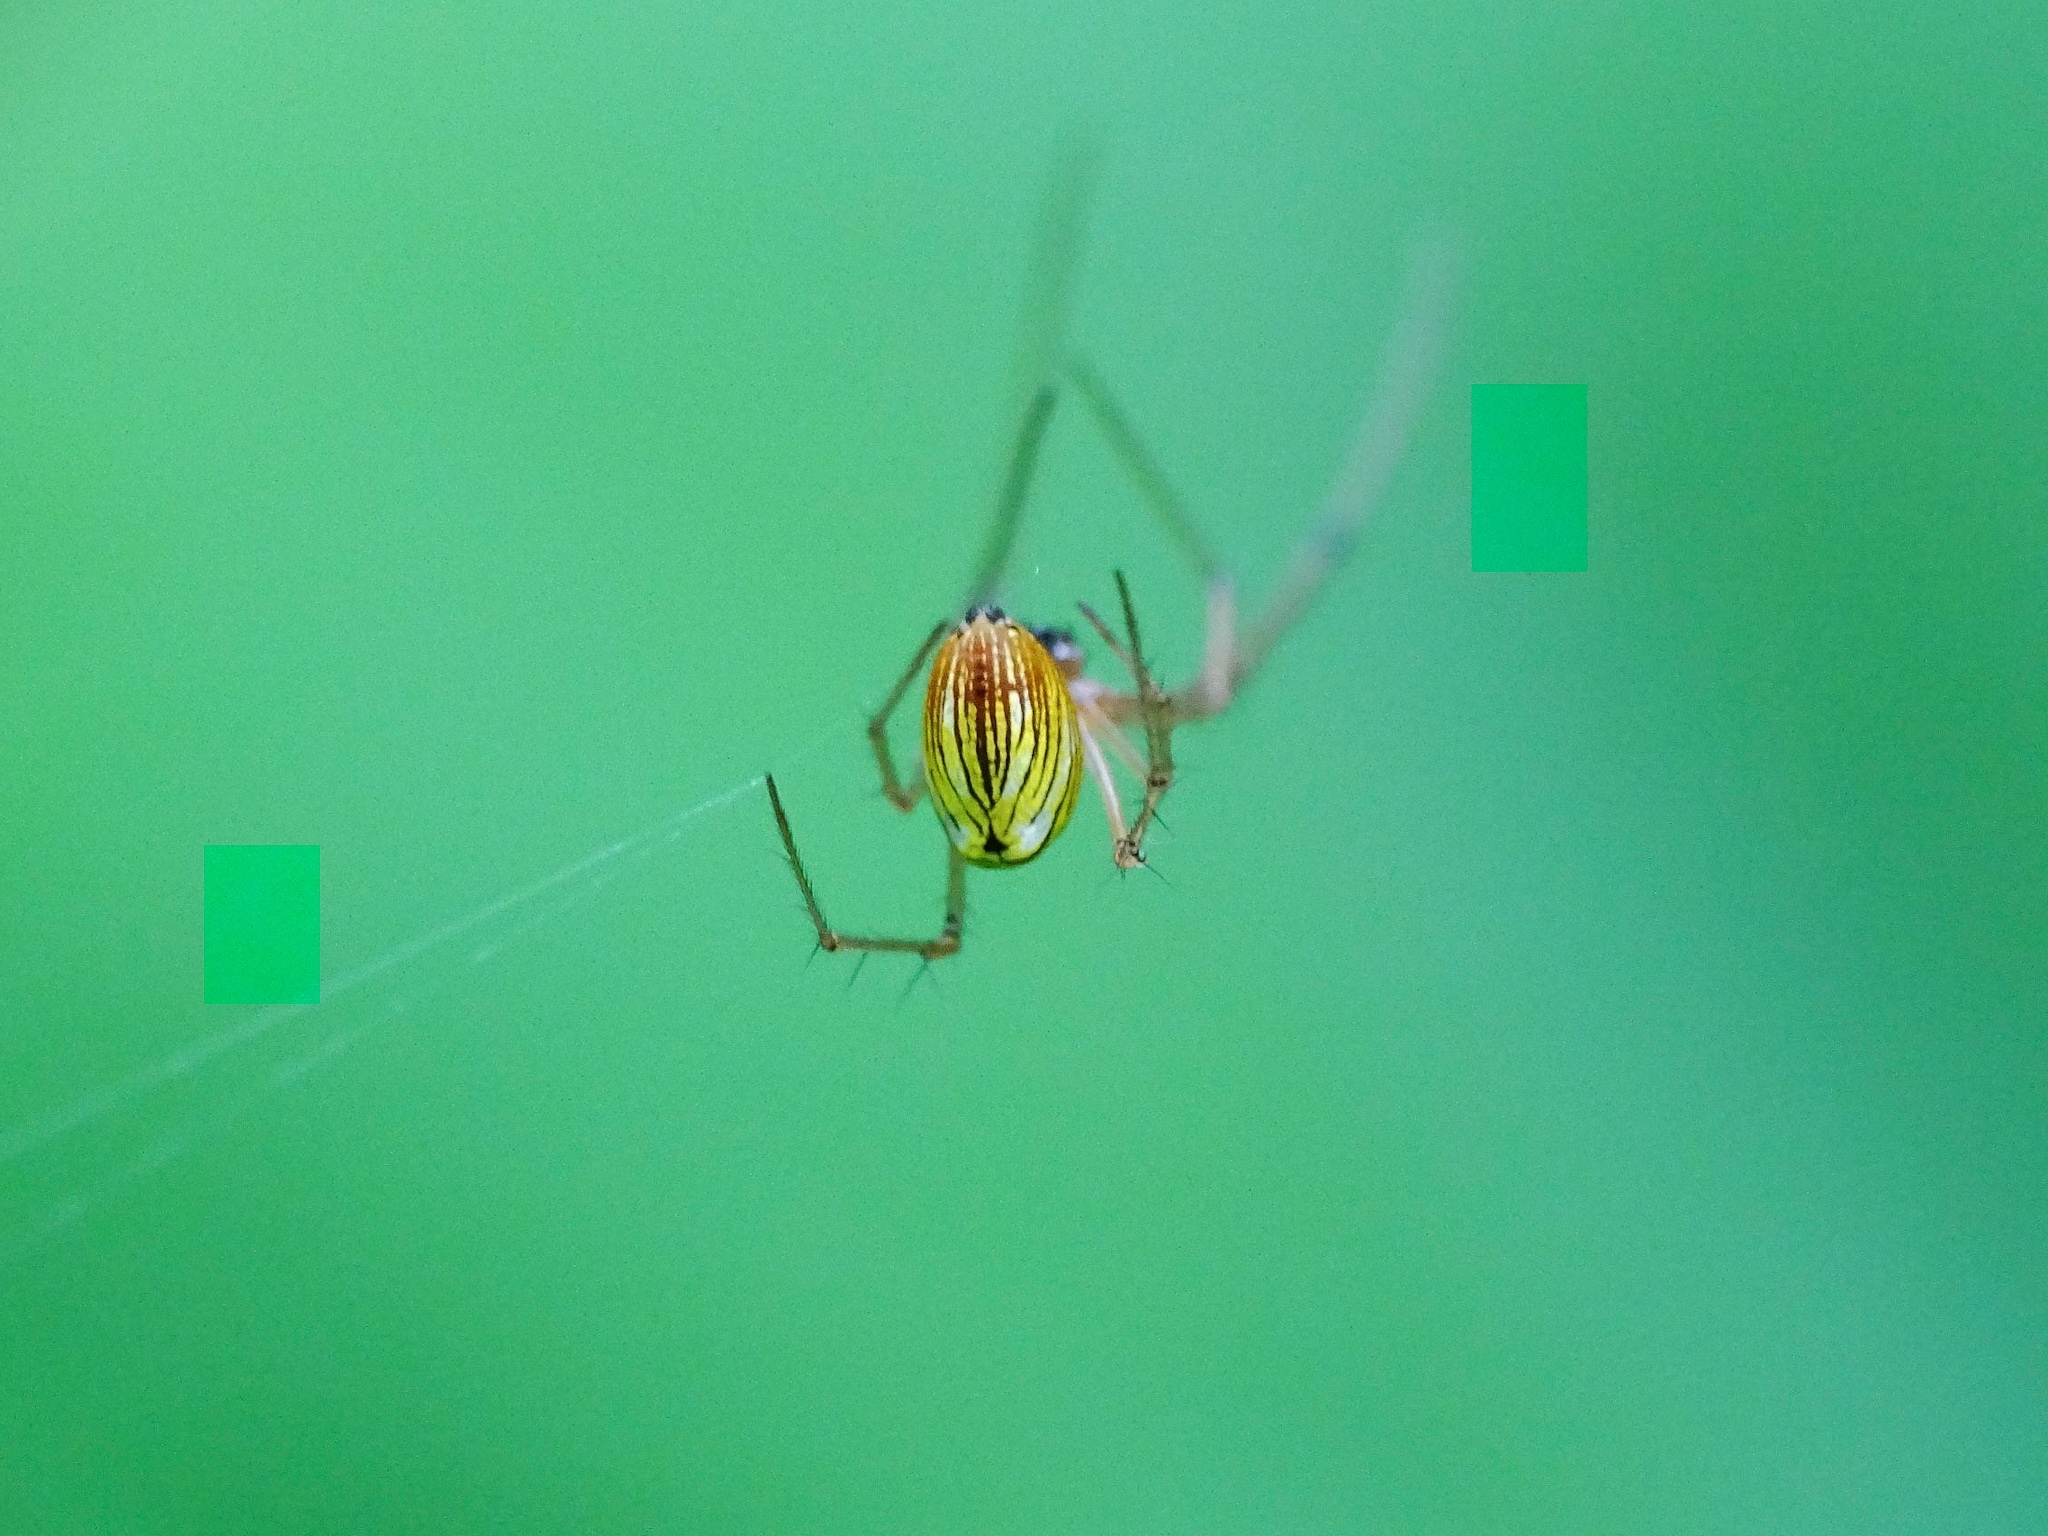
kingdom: Animalia
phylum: Arthropoda
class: Arachnida
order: Araneae
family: Tetragnathidae
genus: Tylorida
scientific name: Tylorida striata
